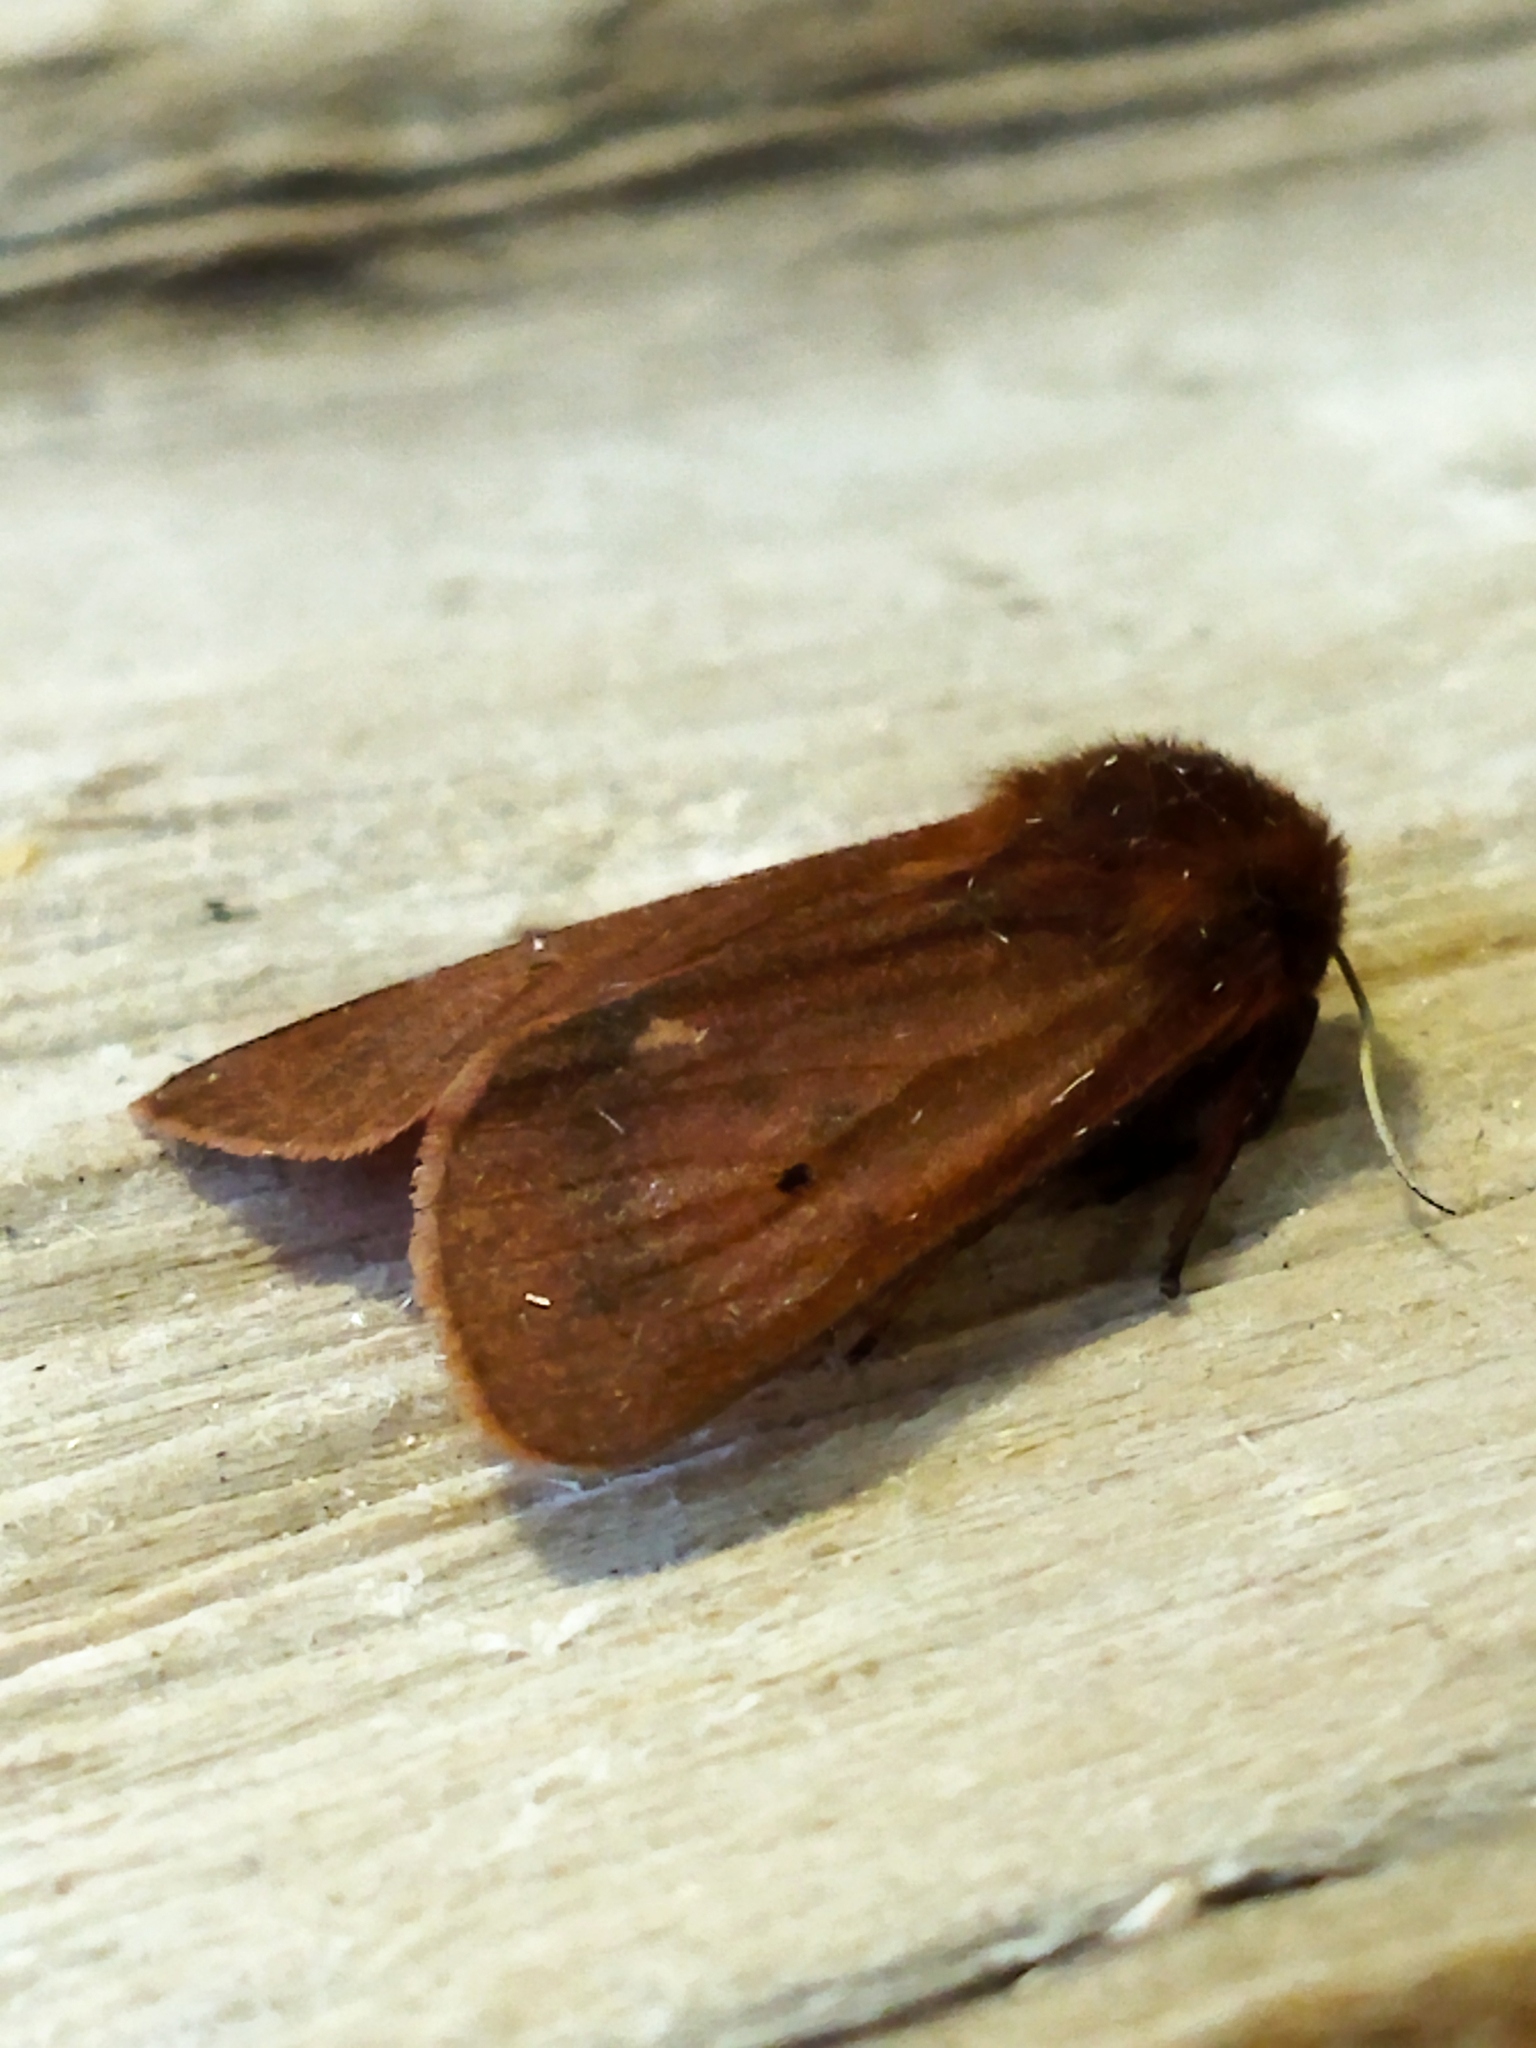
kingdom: Animalia
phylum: Arthropoda
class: Insecta
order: Lepidoptera
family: Erebidae
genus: Phragmatobia
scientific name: Phragmatobia fuliginosa
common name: Ruby tiger
